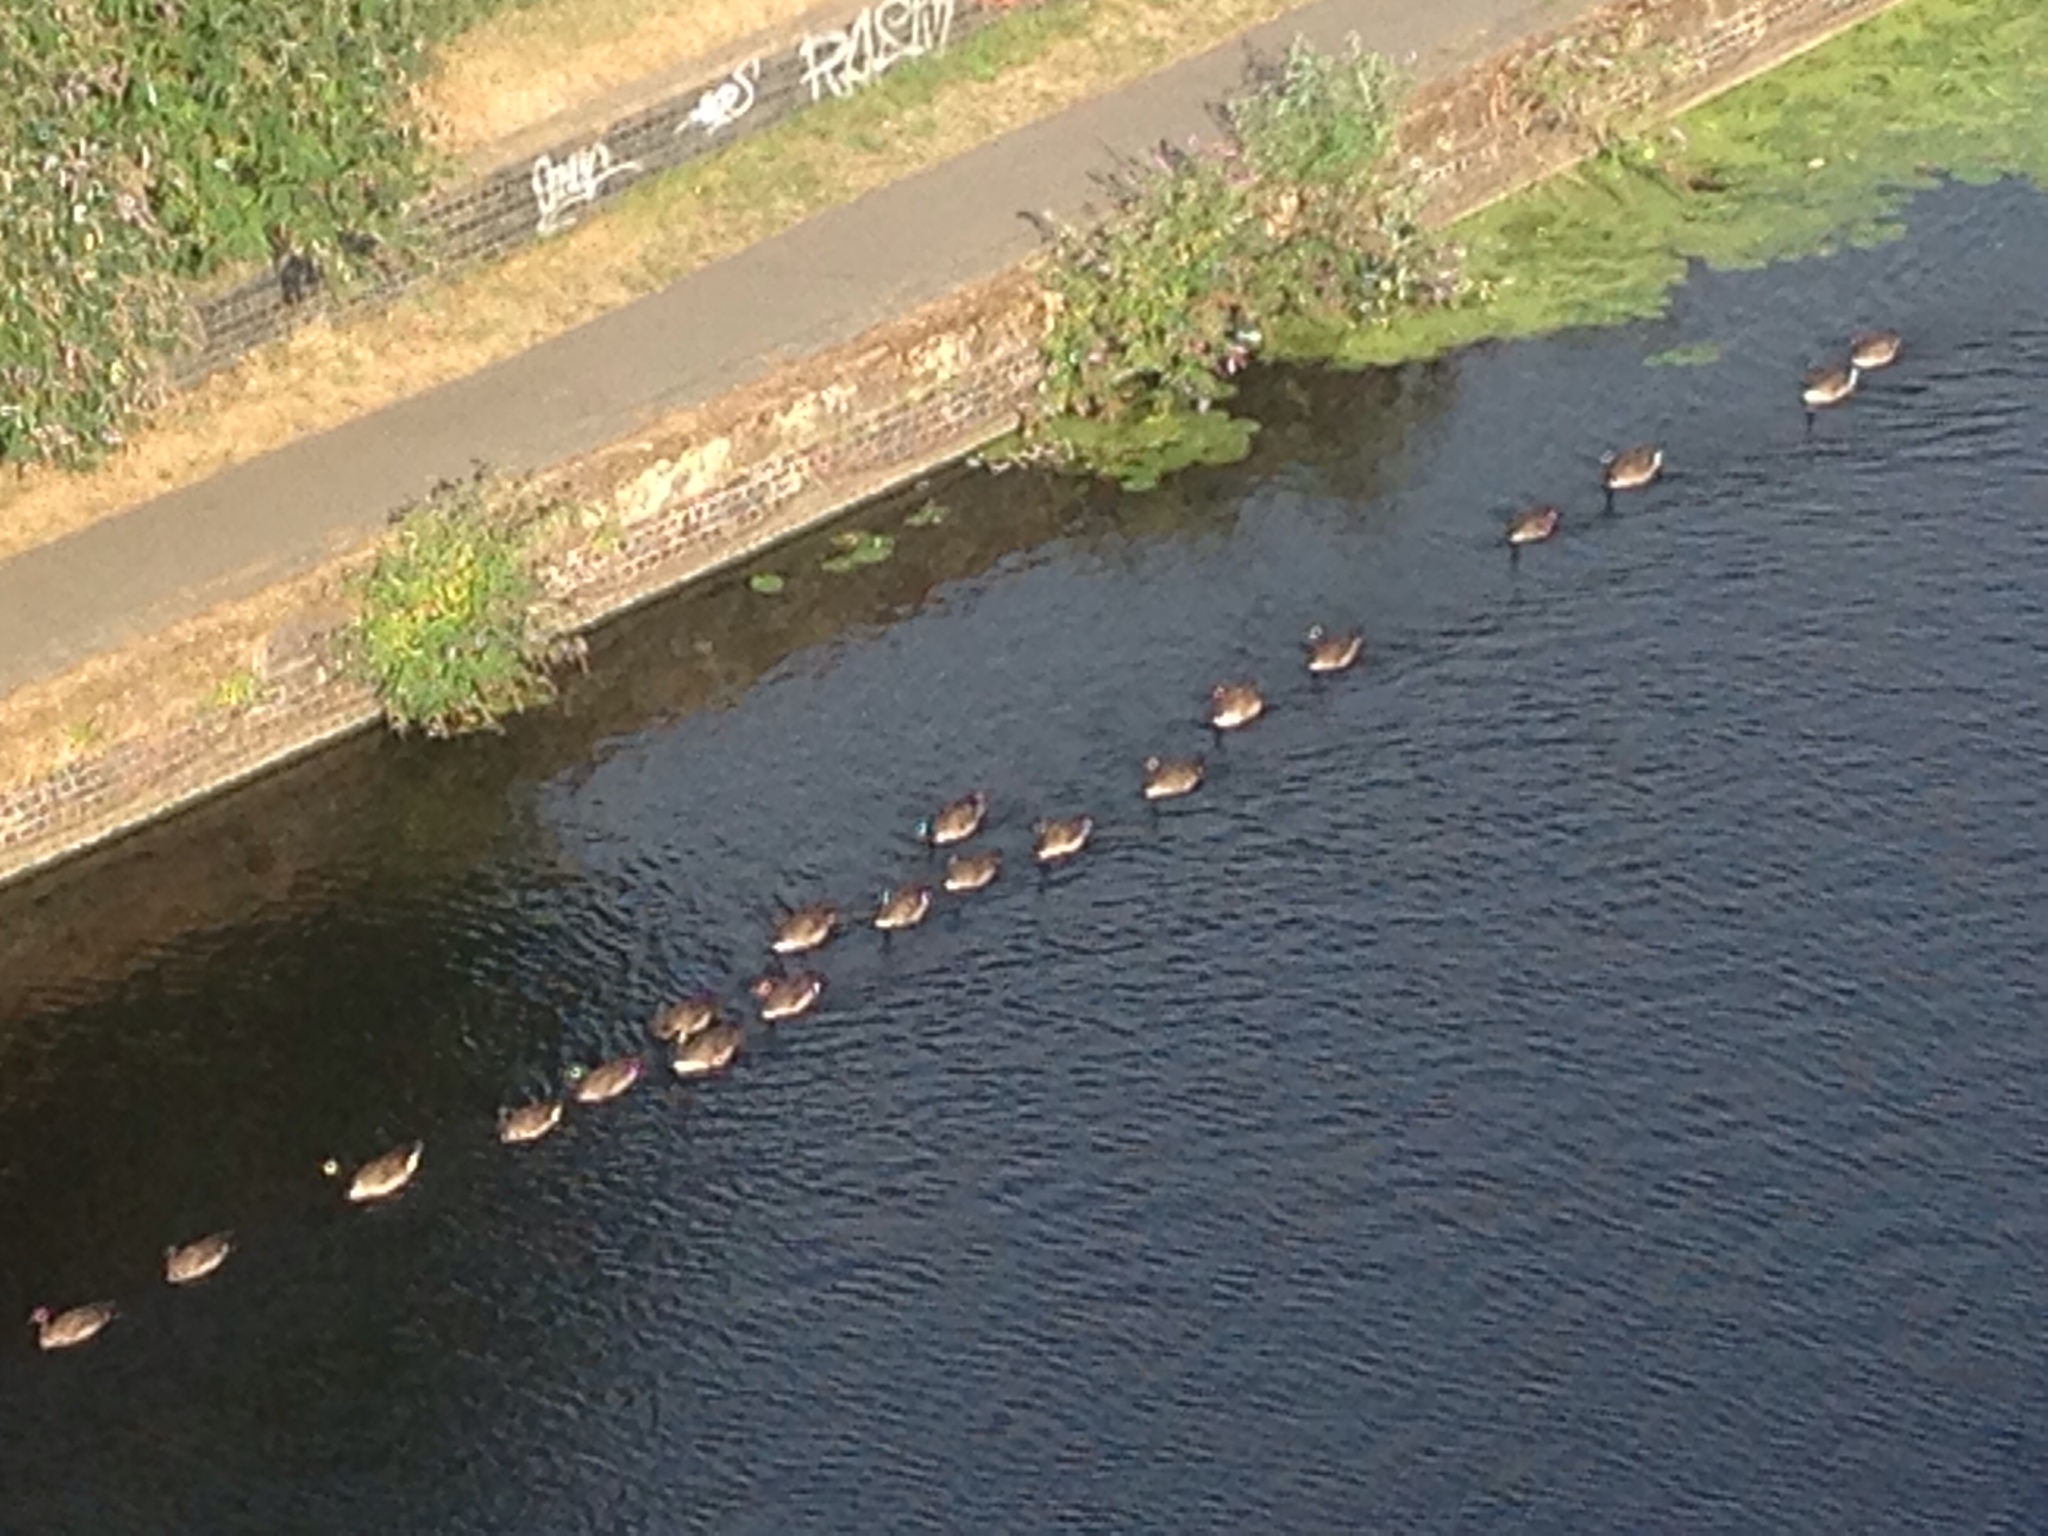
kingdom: Animalia
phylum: Chordata
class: Aves
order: Anseriformes
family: Anatidae
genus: Branta
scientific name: Branta canadensis
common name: Canada goose
